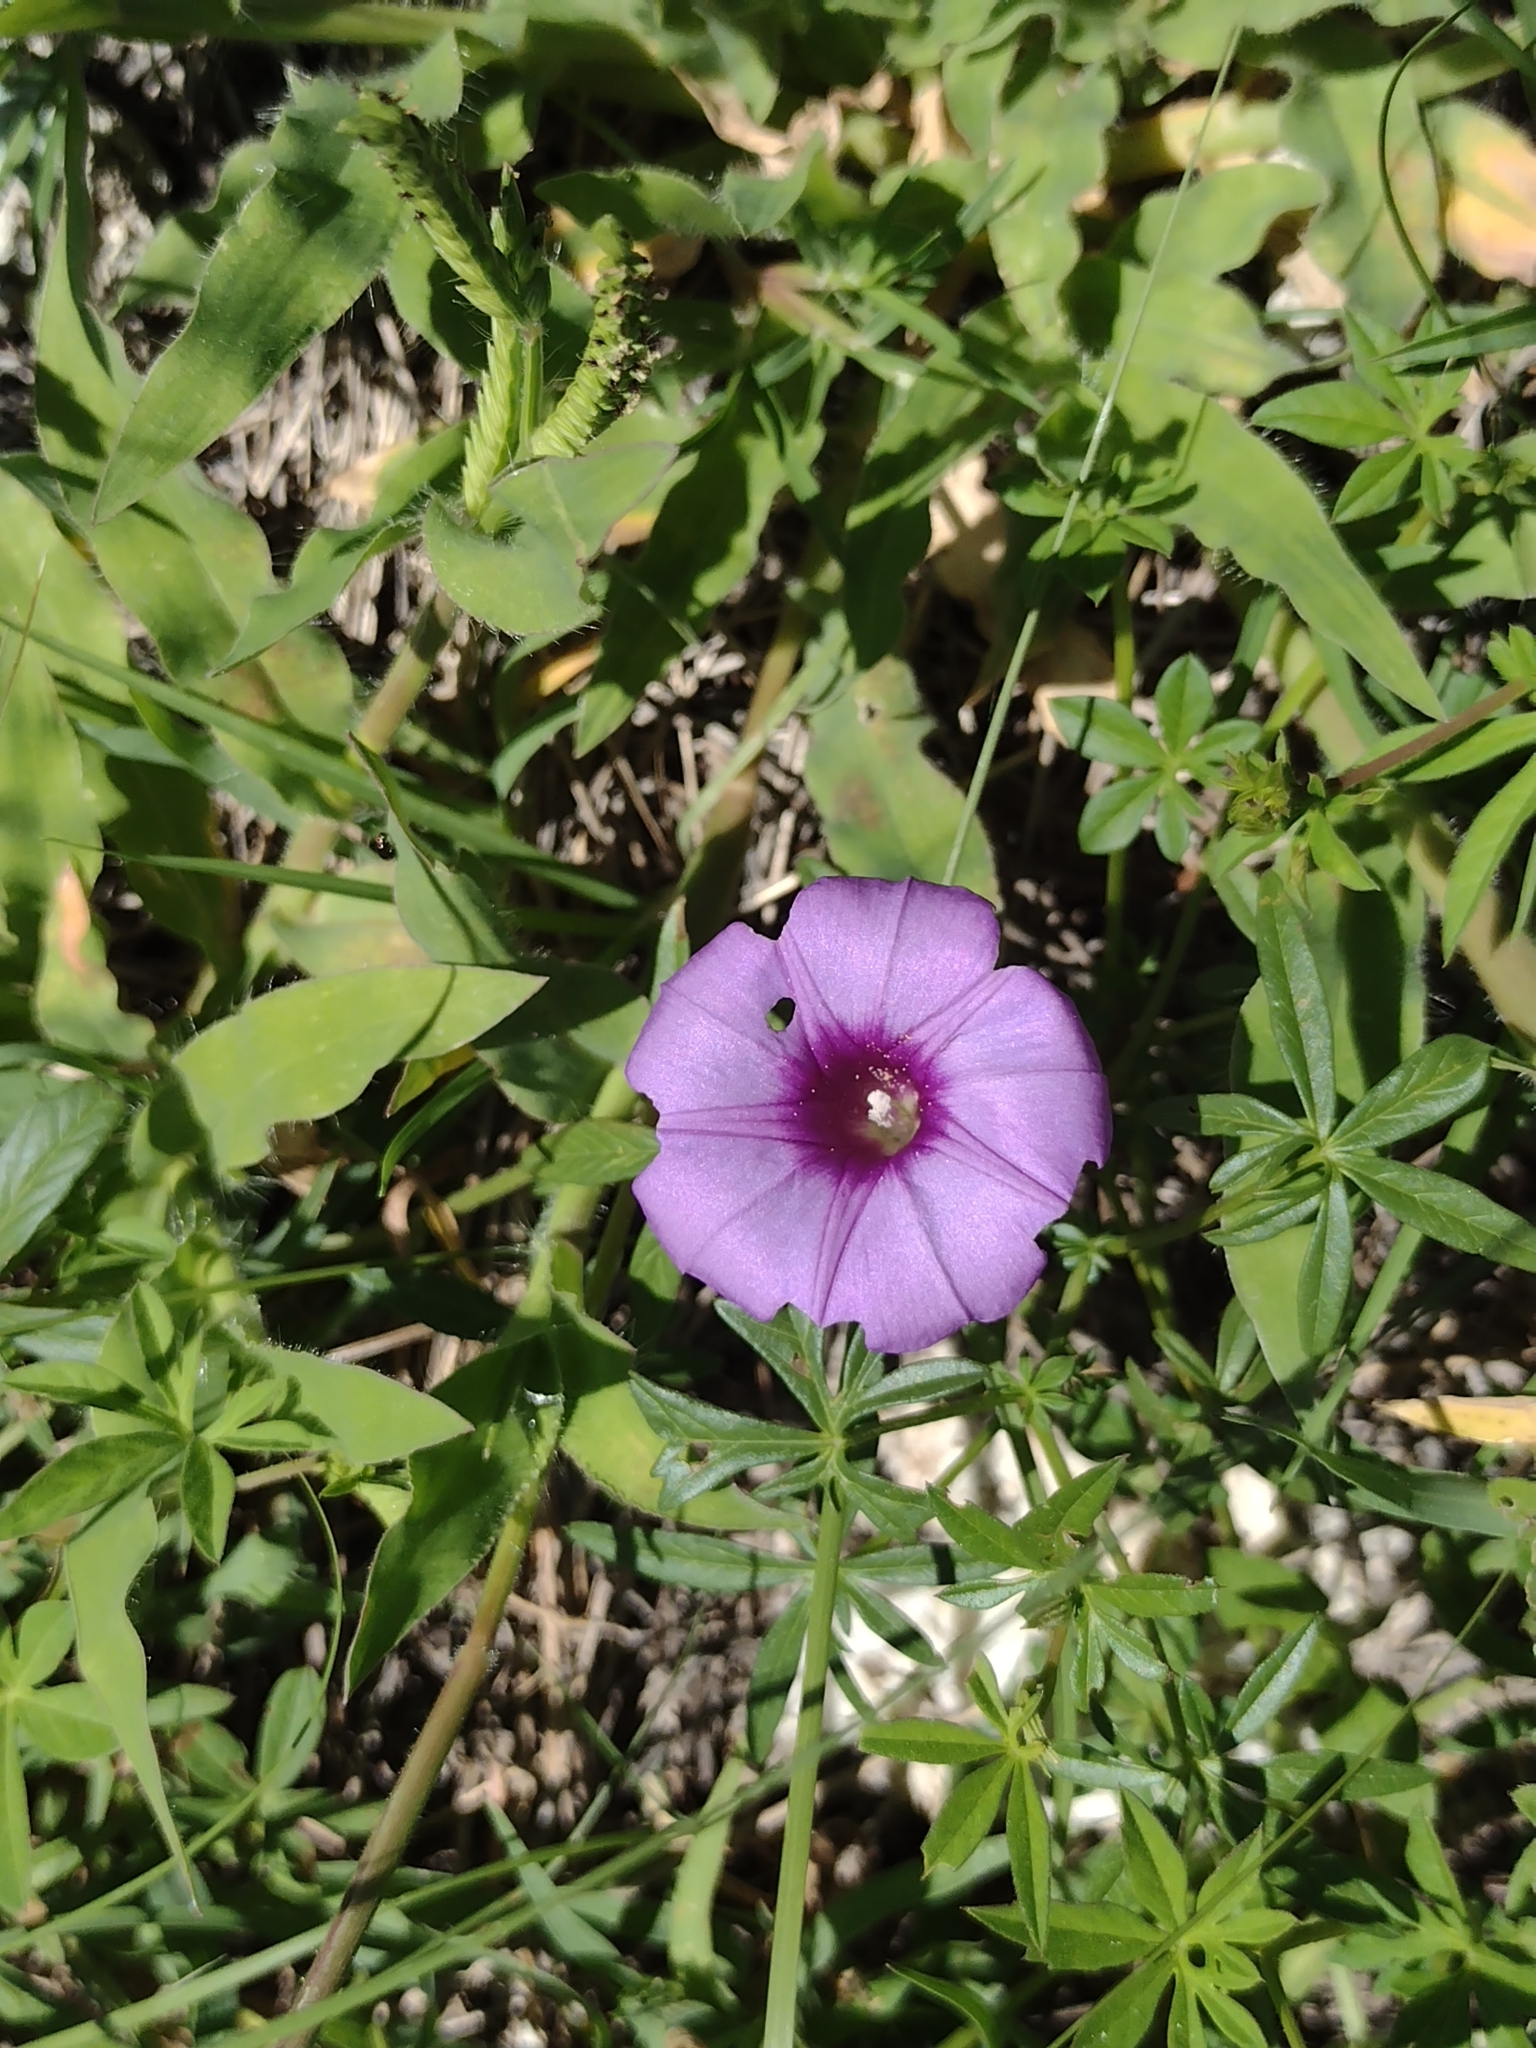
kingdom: Plantae
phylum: Tracheophyta
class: Magnoliopsida
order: Solanales
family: Convolvulaceae
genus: Ipomoea
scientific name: Ipomoea ternifolia
